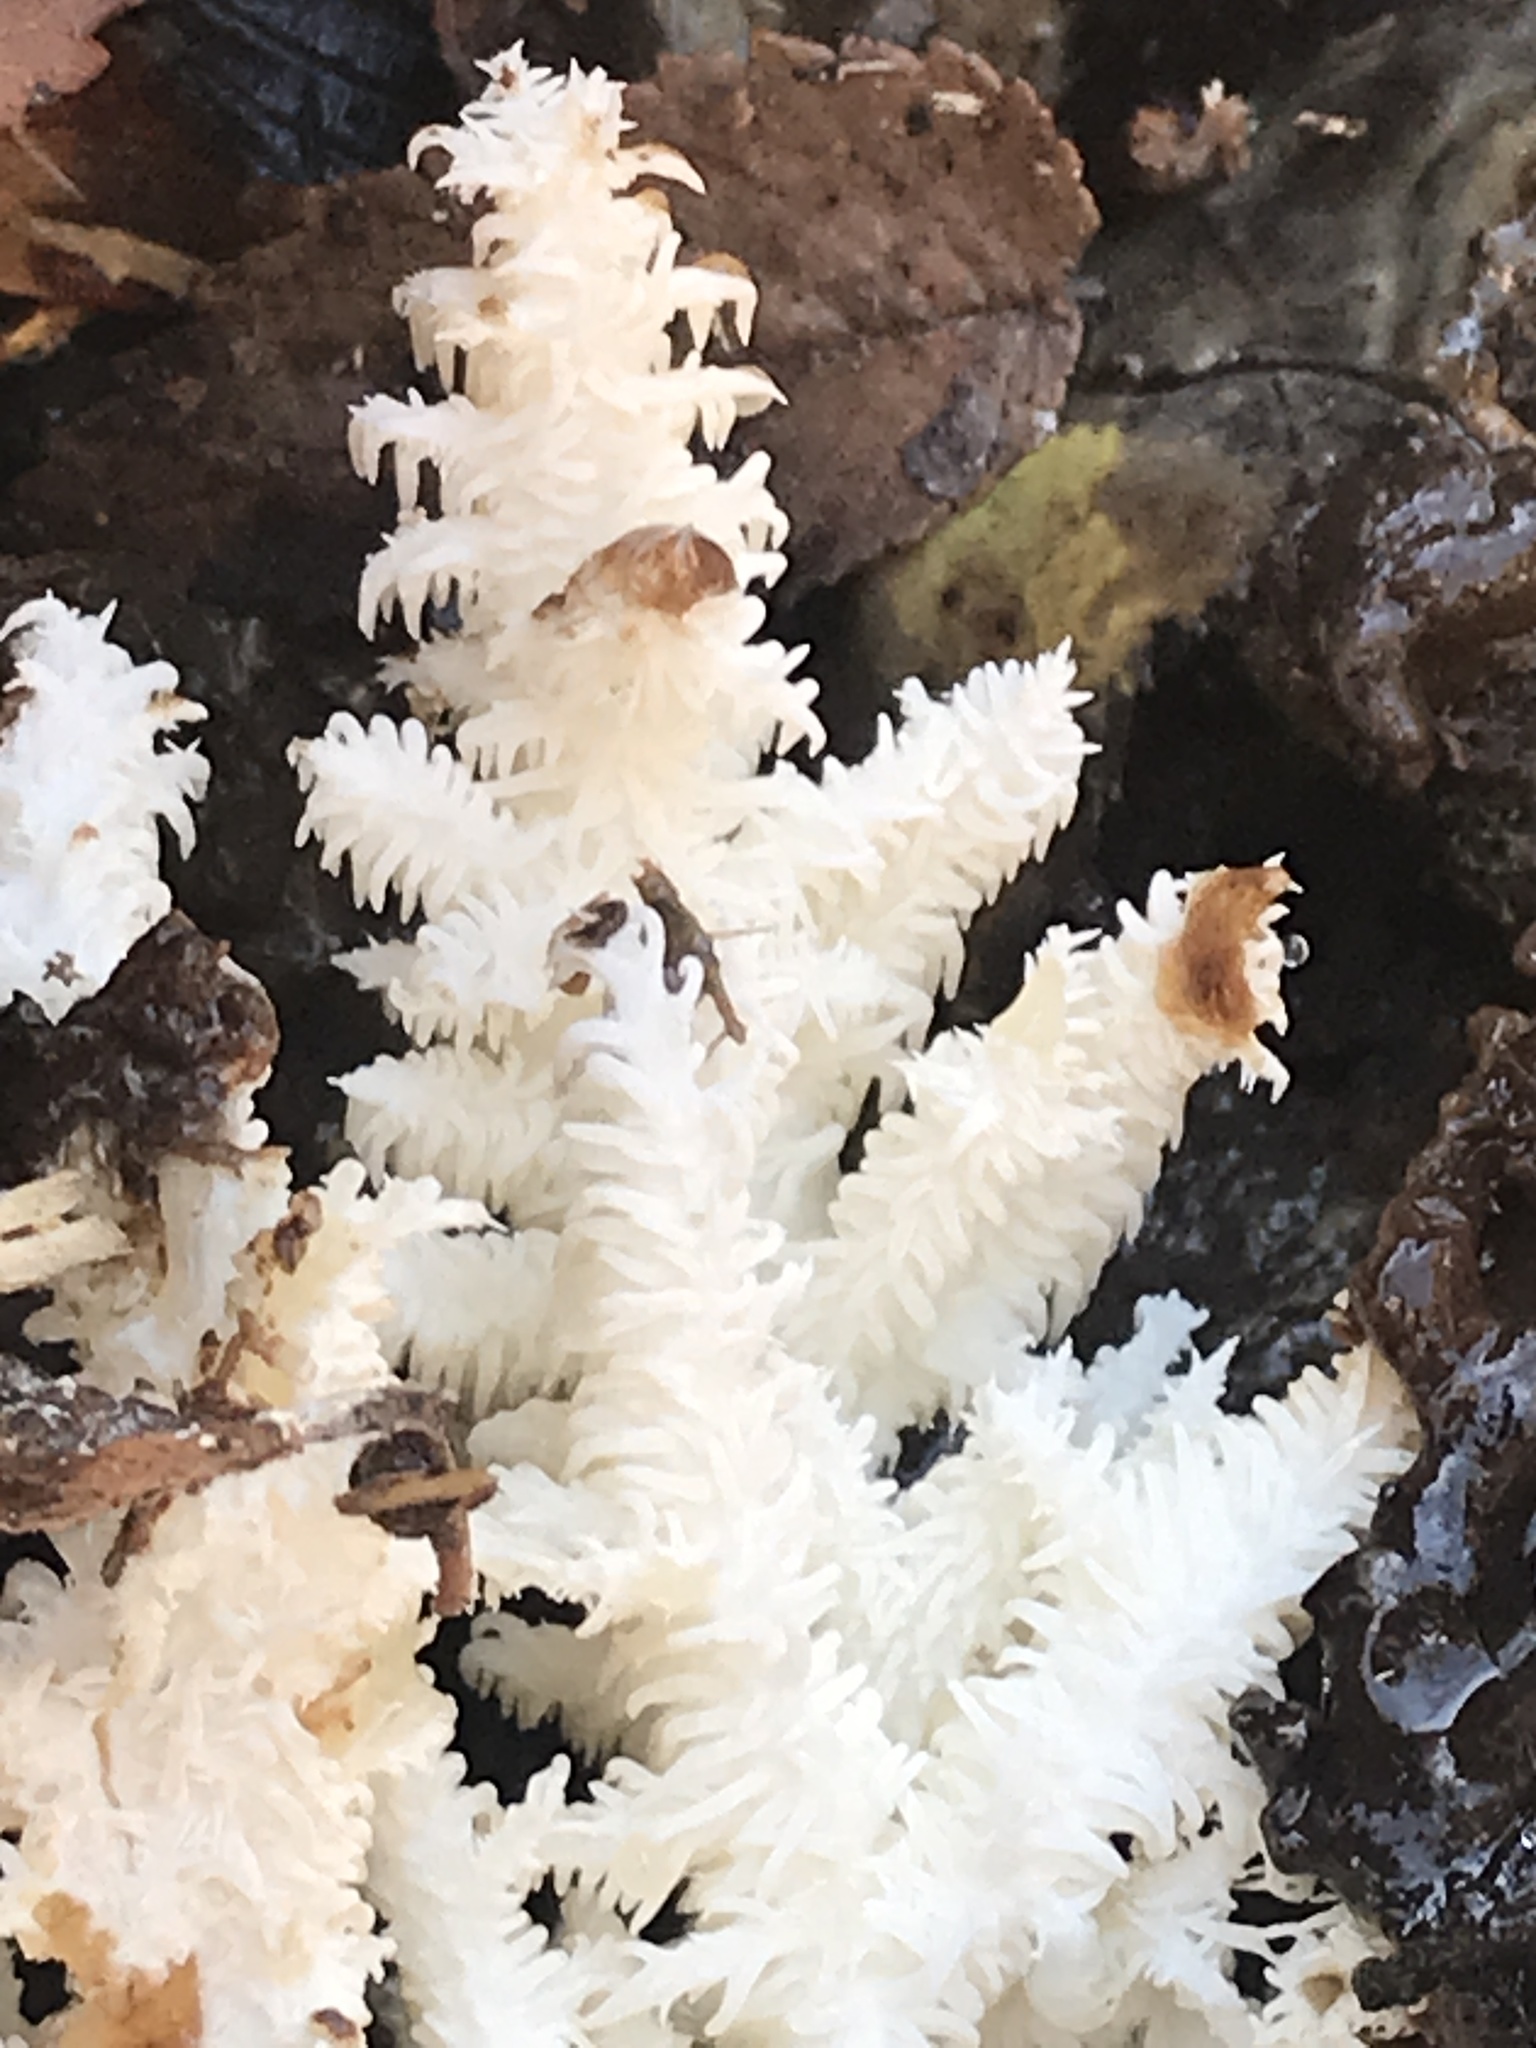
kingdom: Fungi
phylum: Basidiomycota
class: Agaricomycetes
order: Russulales
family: Hericiaceae
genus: Hericium
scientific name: Hericium coralloides
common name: Coral tooth
